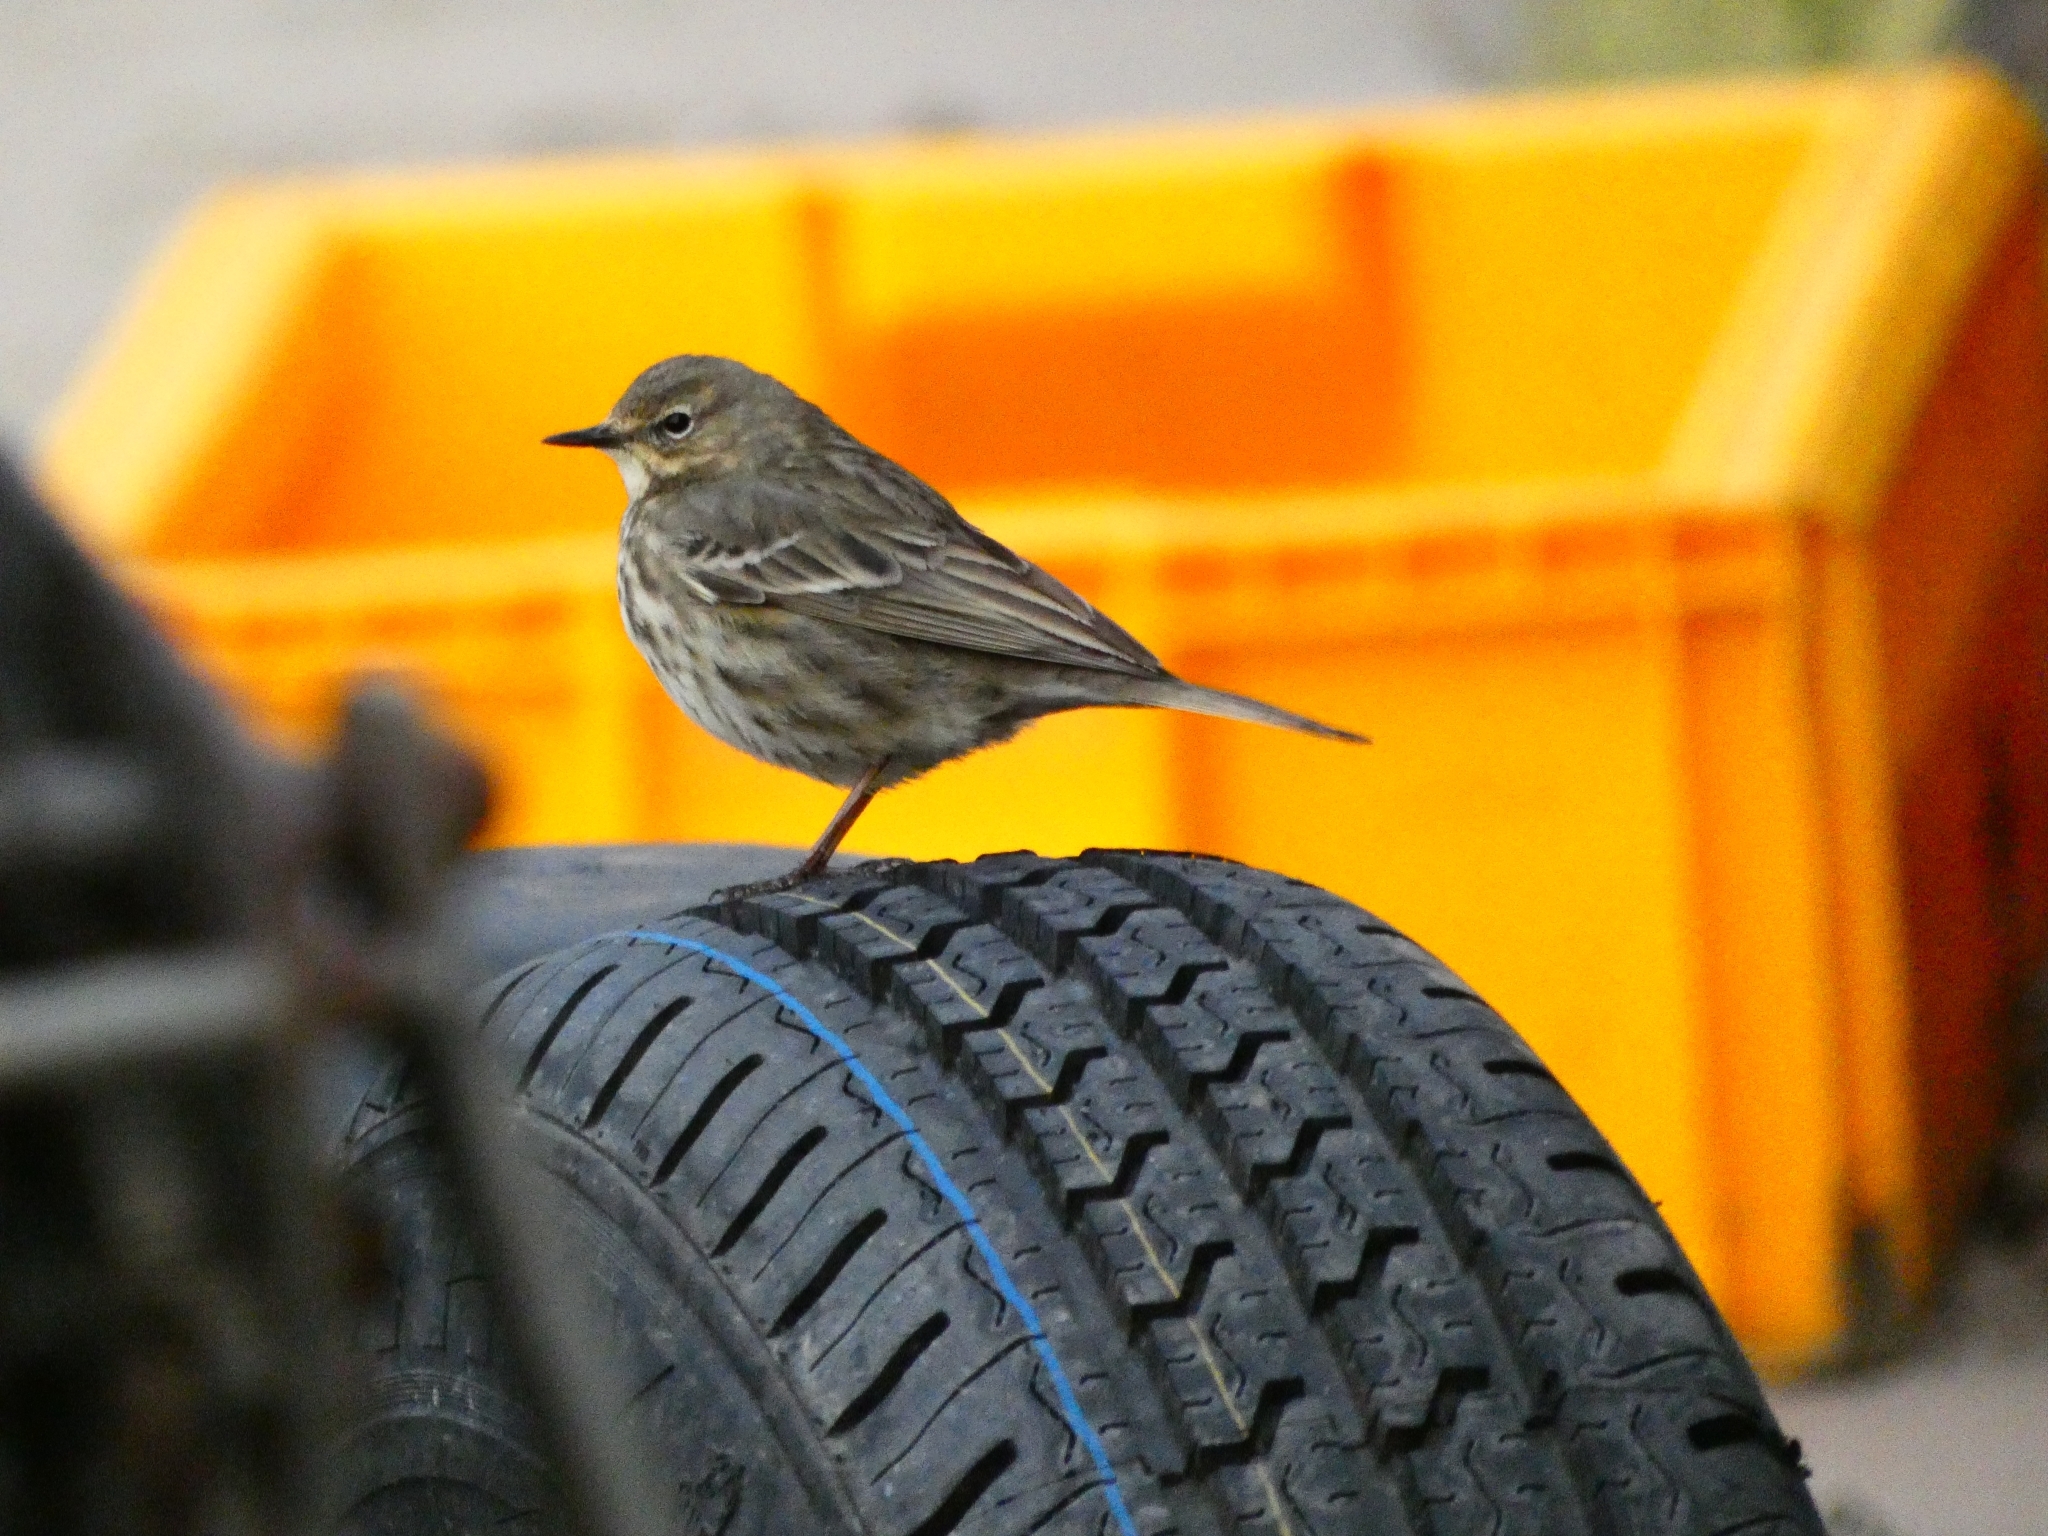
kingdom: Animalia
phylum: Chordata
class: Aves
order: Passeriformes
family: Motacillidae
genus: Anthus
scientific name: Anthus petrosus
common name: Eurasian rock pipit
